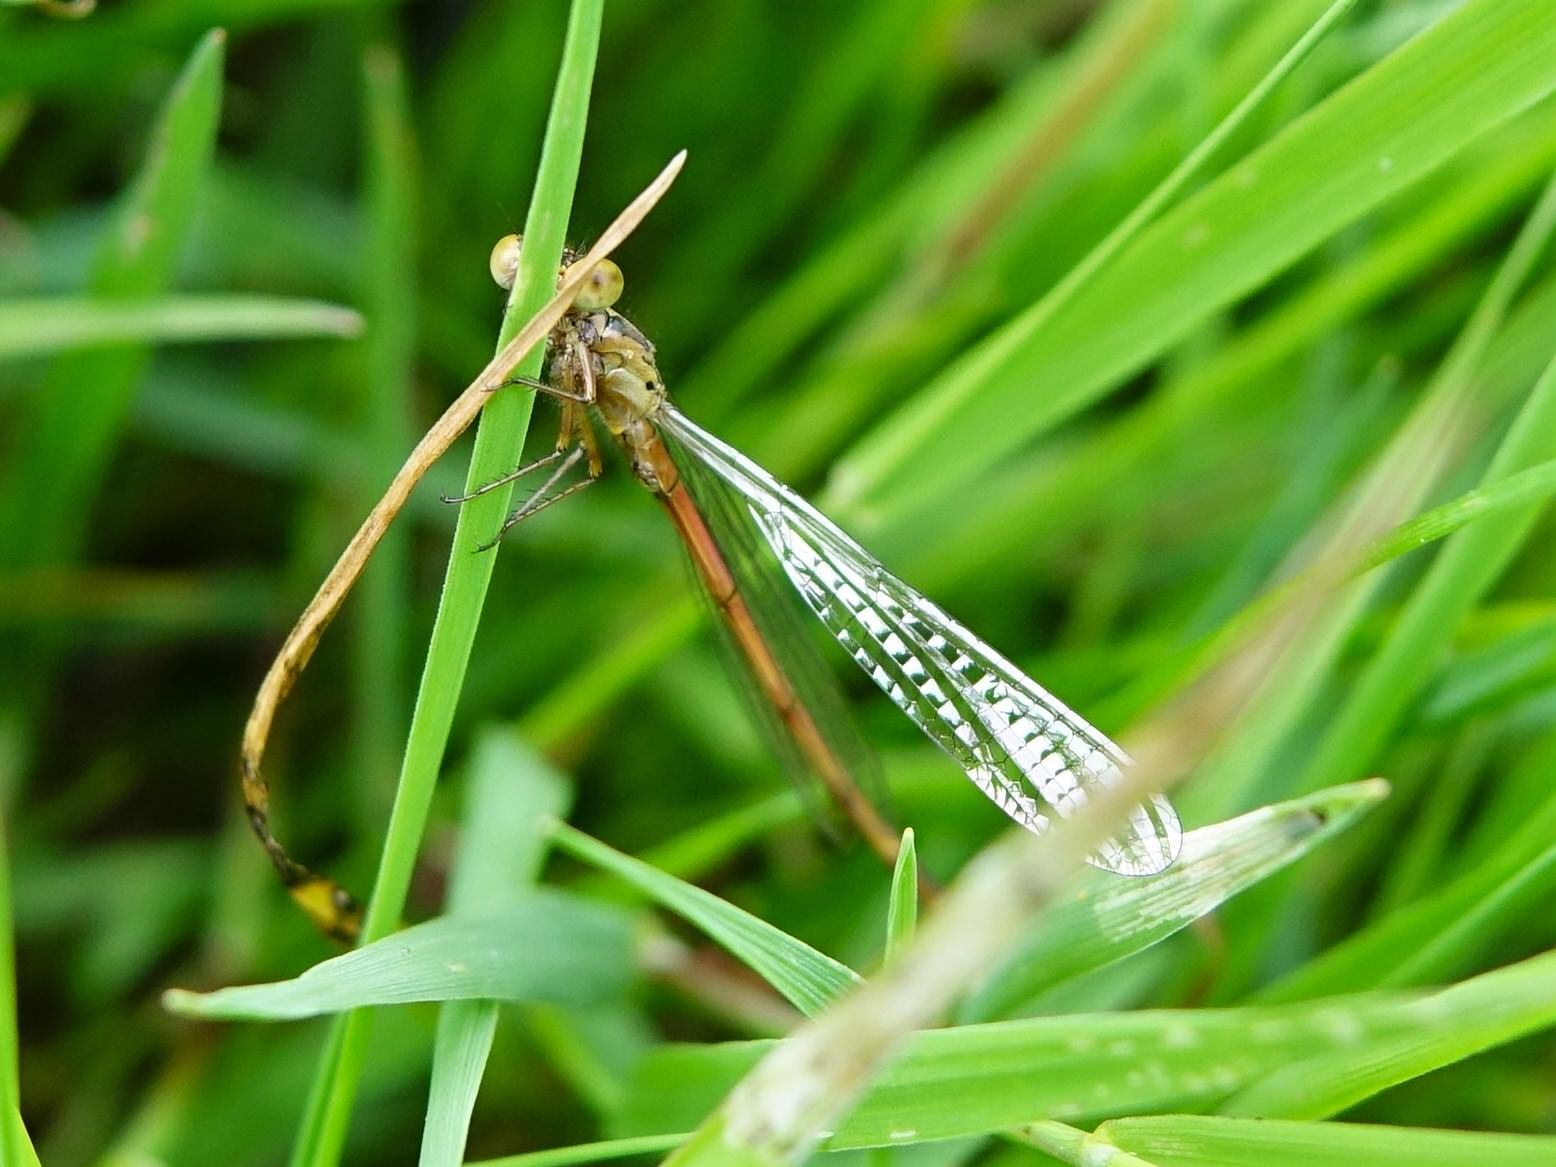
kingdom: Animalia
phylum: Arthropoda
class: Insecta
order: Odonata
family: Coenagrionidae
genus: Xanthocnemis
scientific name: Xanthocnemis zealandica
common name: Common redcoat damselfly
